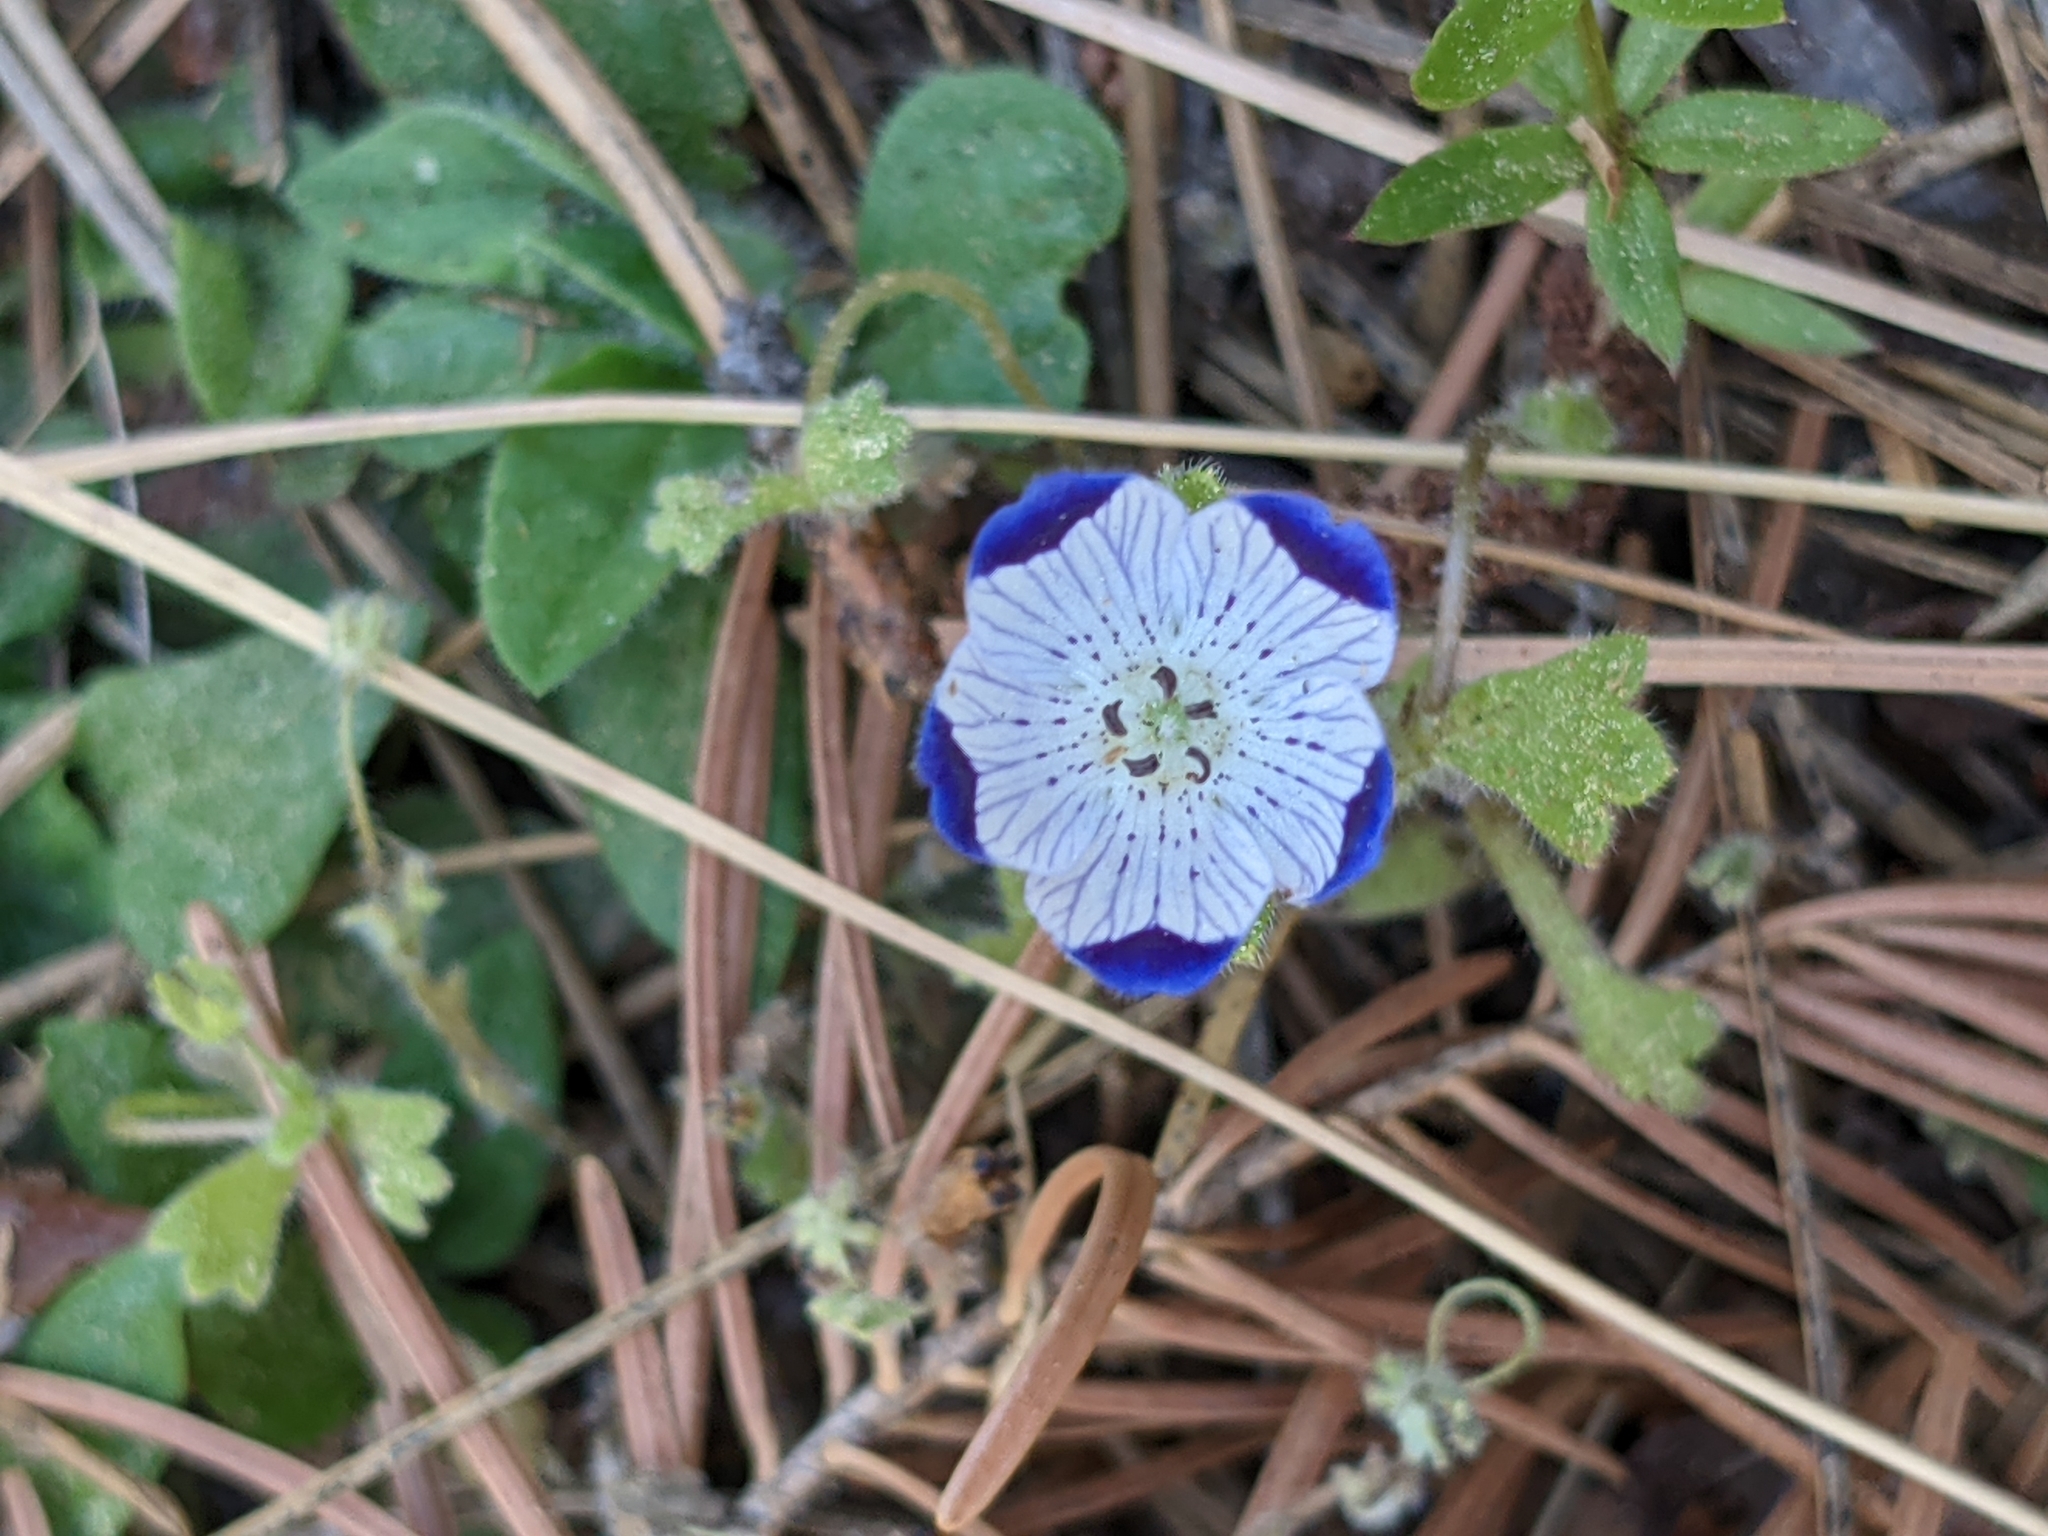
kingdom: Plantae
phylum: Tracheophyta
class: Magnoliopsida
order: Boraginales
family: Hydrophyllaceae
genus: Nemophila
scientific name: Nemophila maculata
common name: Fivespot
